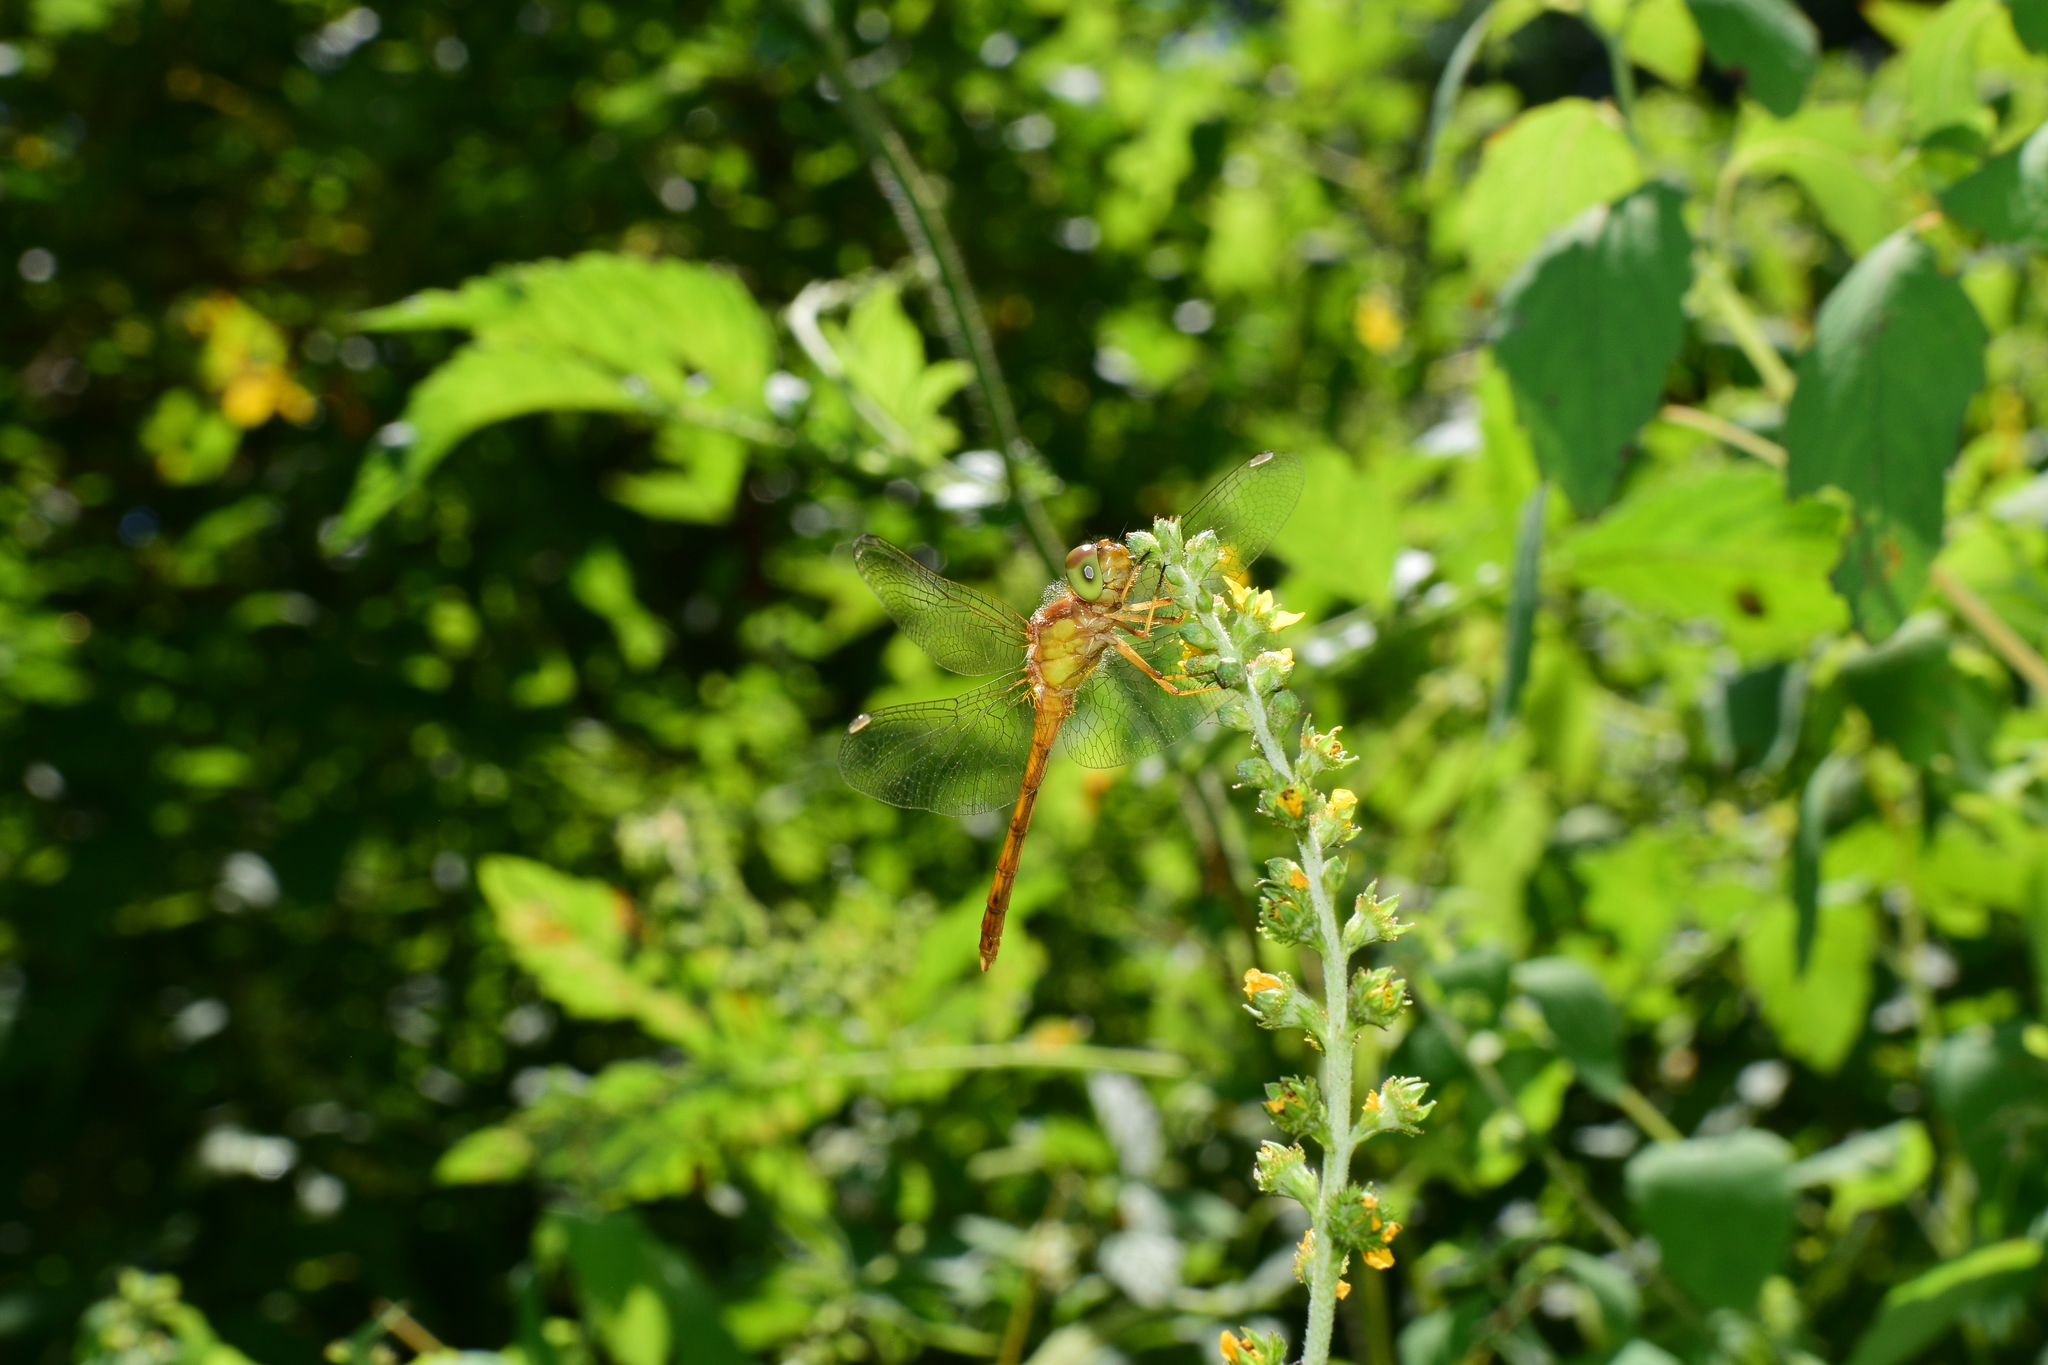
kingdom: Animalia
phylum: Arthropoda
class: Insecta
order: Odonata
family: Libellulidae
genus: Sympetrum
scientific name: Sympetrum vicinum
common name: Autumn meadowhawk
